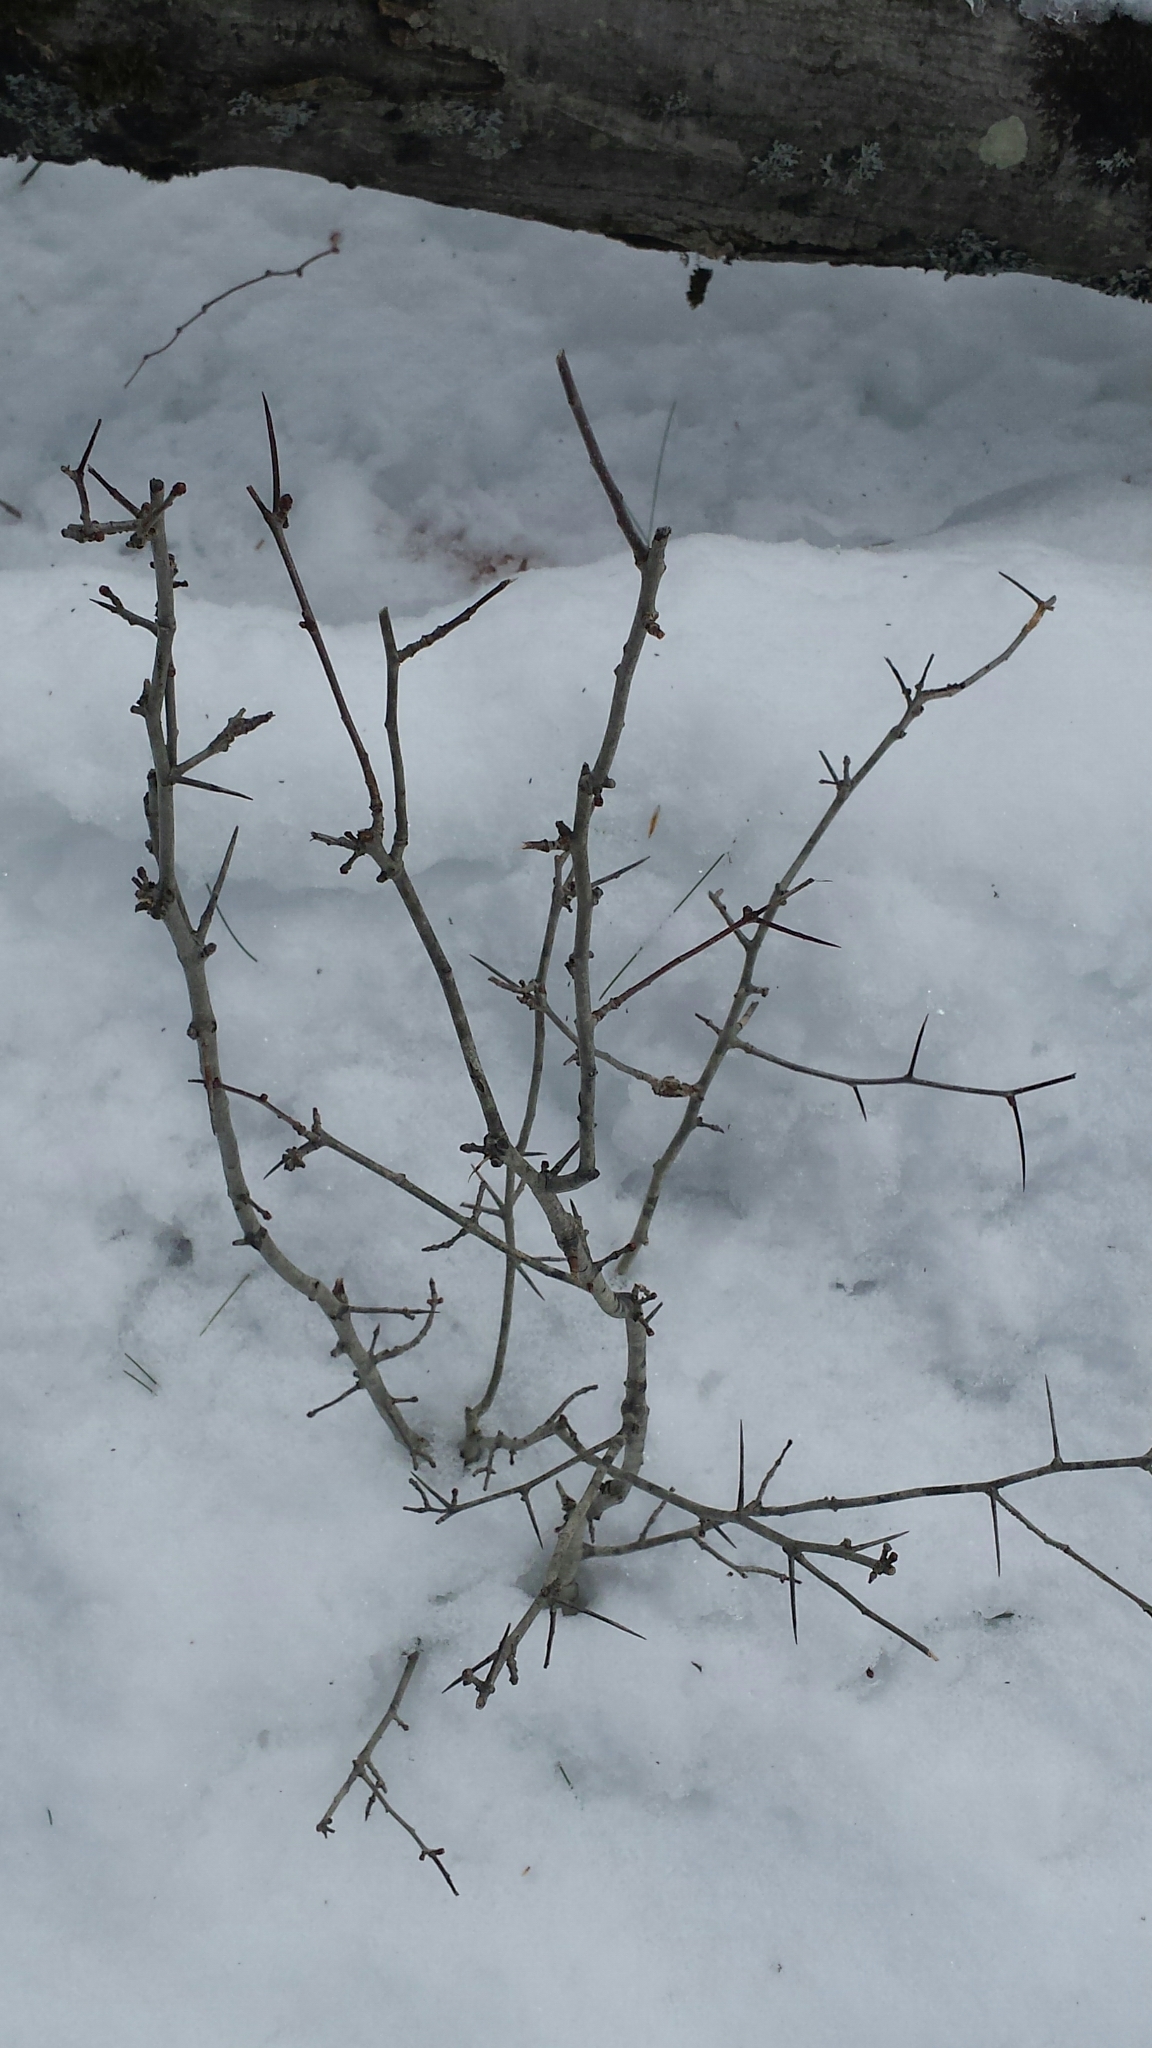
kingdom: Plantae
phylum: Tracheophyta
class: Magnoliopsida
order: Rosales
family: Rosaceae
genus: Crataegus
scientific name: Crataegus
